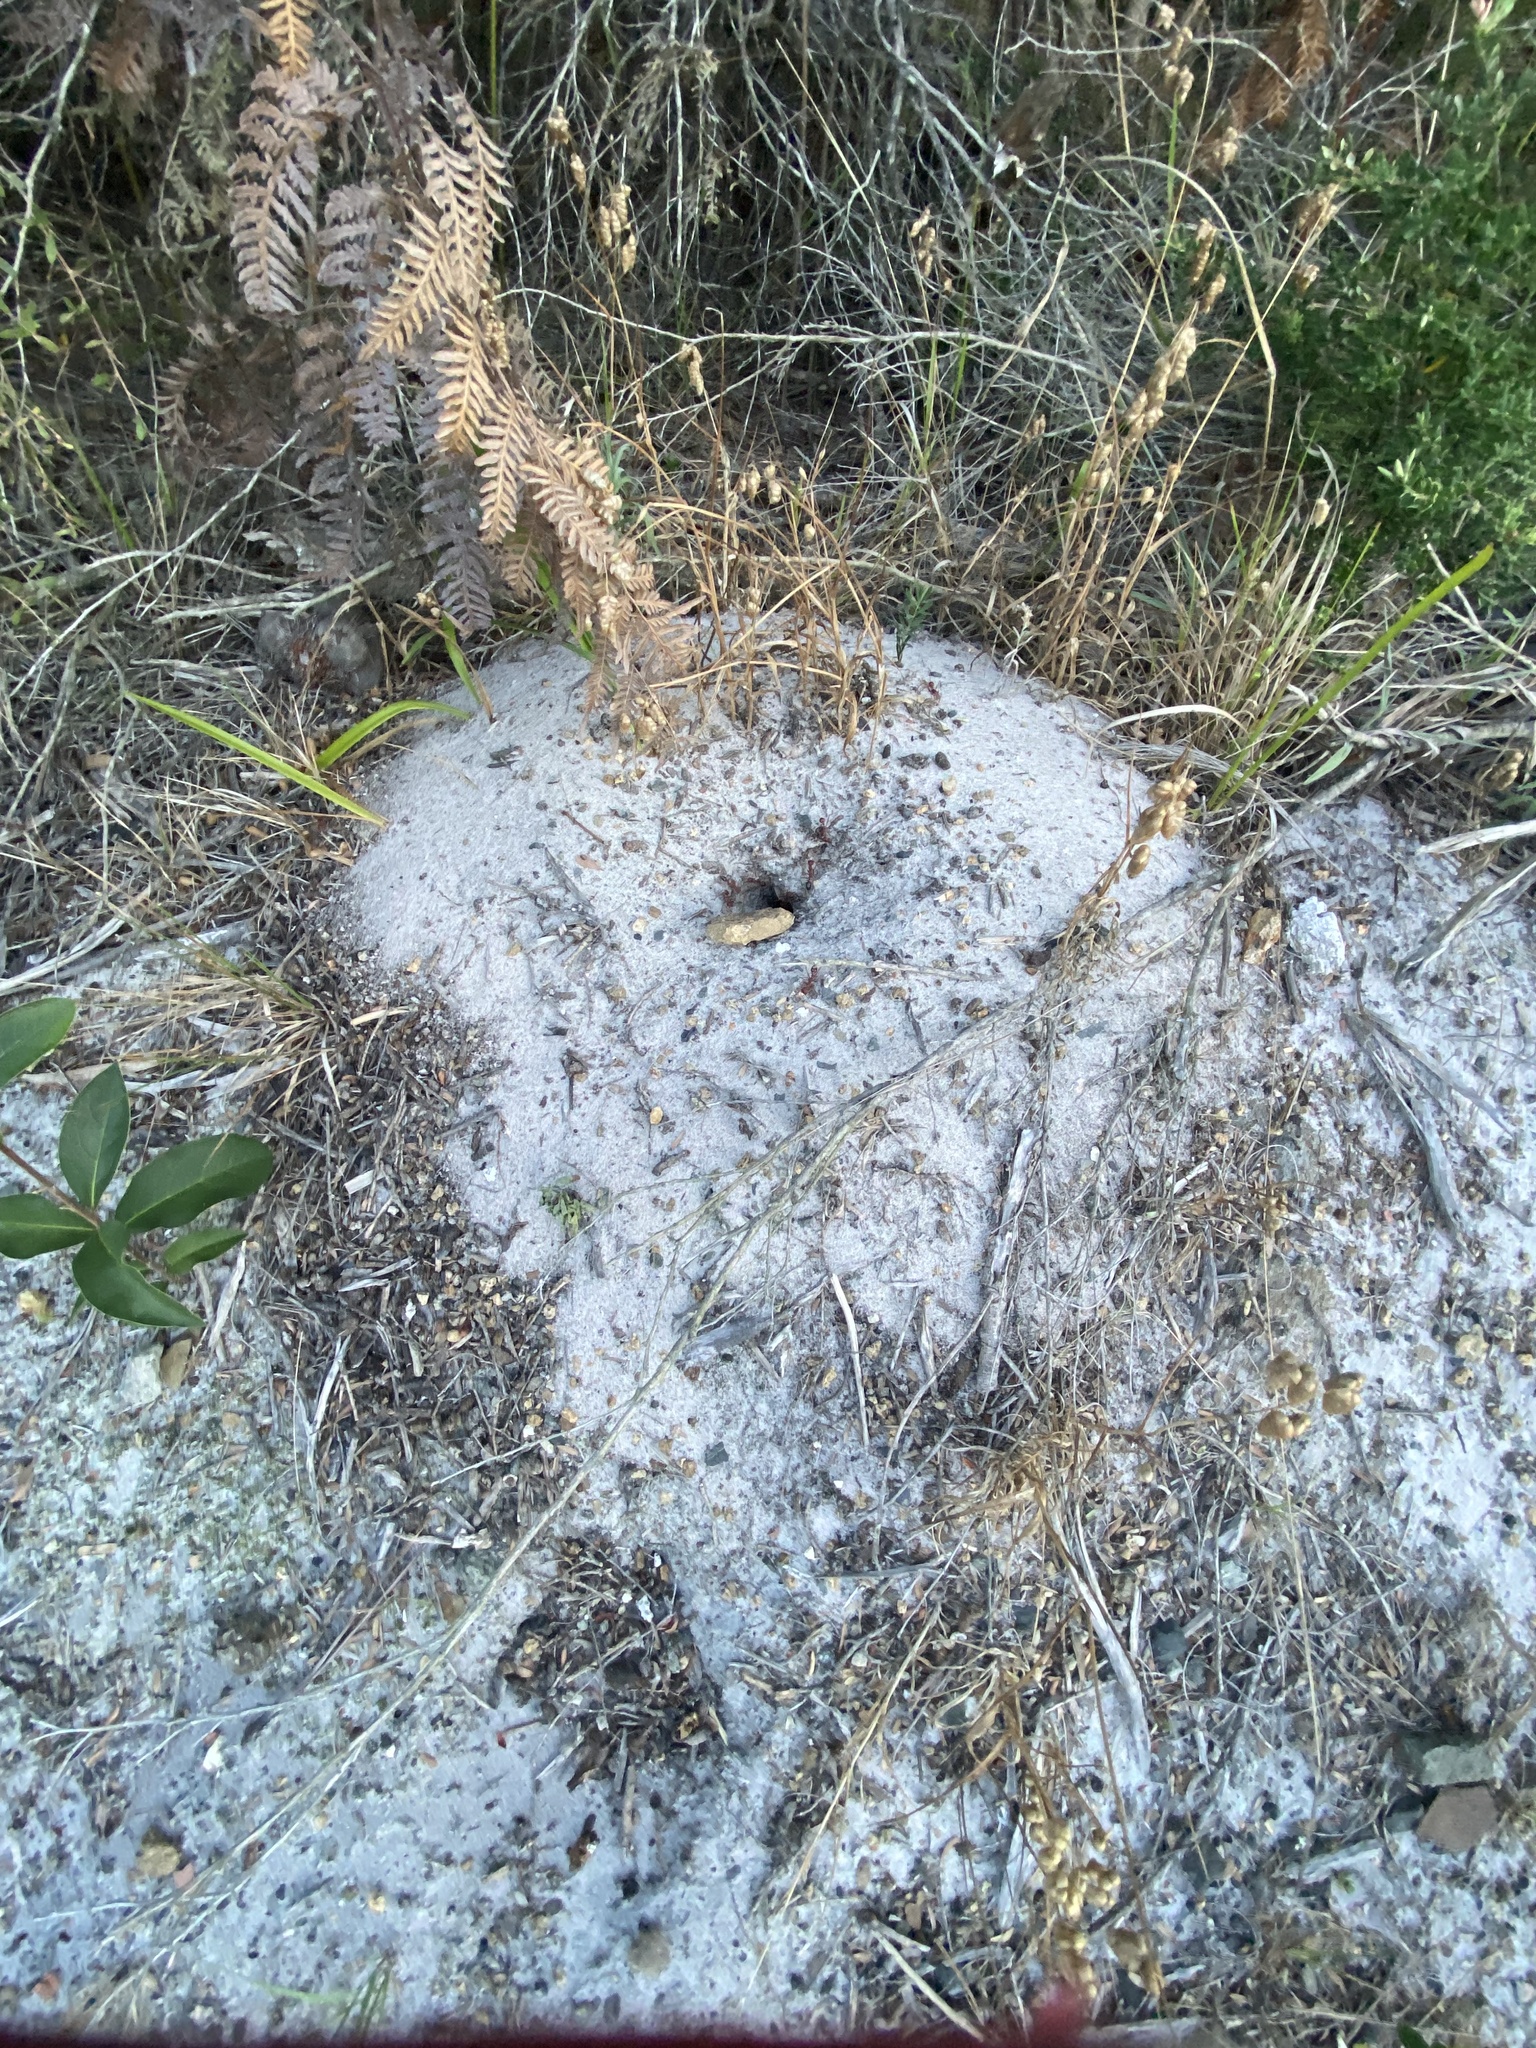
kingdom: Animalia
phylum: Arthropoda
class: Insecta
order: Hymenoptera
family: Formicidae
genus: Myrmecia
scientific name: Myrmecia gulosa
